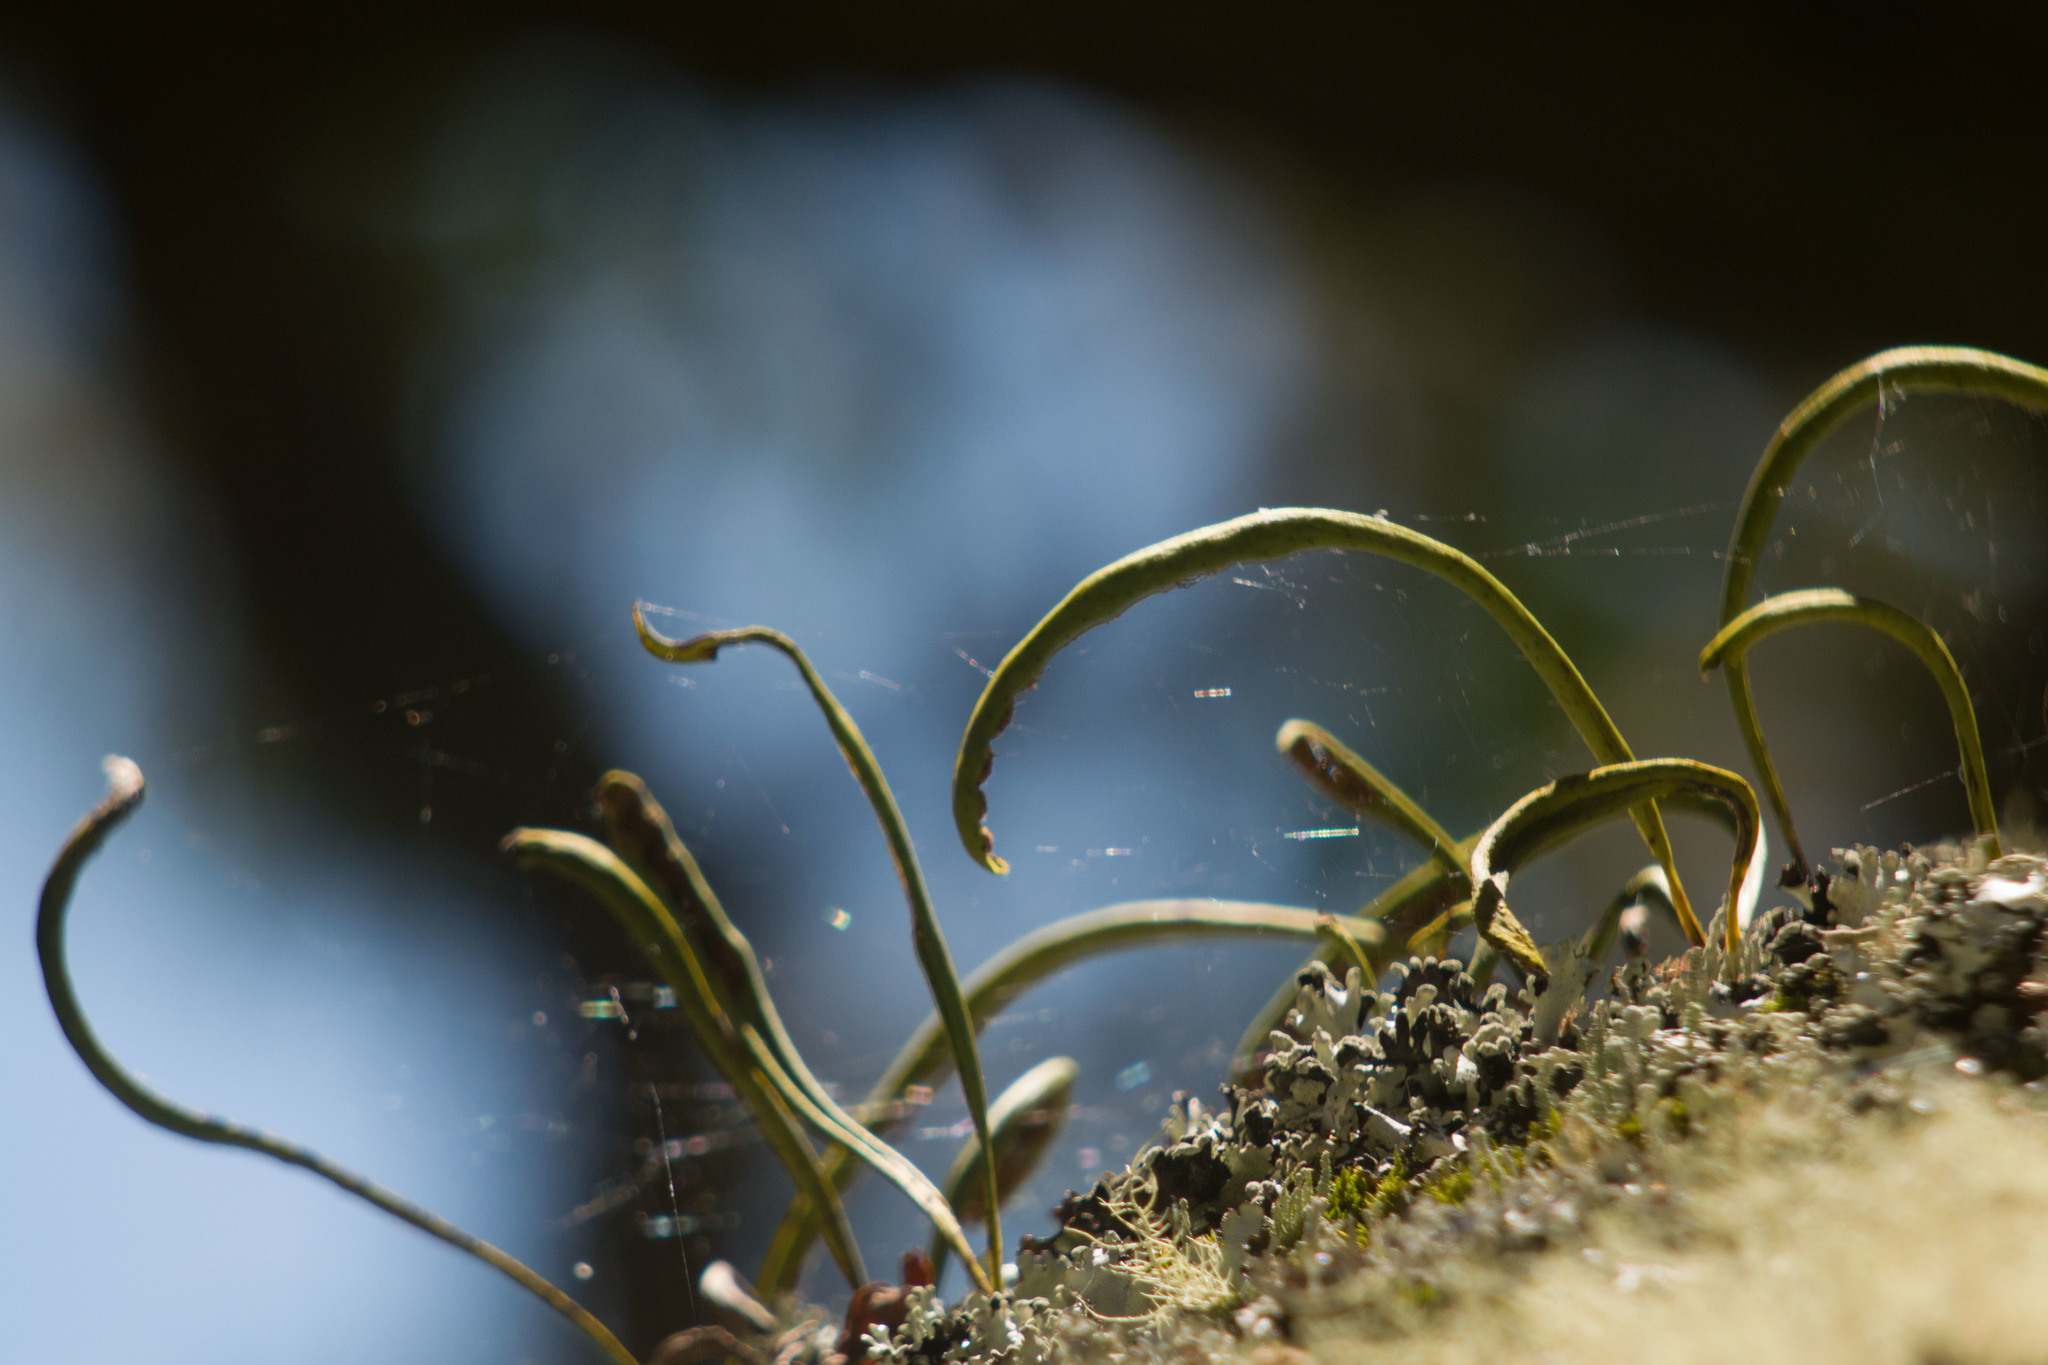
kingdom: Plantae
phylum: Tracheophyta
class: Polypodiopsida
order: Polypodiales
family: Polypodiaceae
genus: Lepisorus
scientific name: Lepisorus thunbergianus
